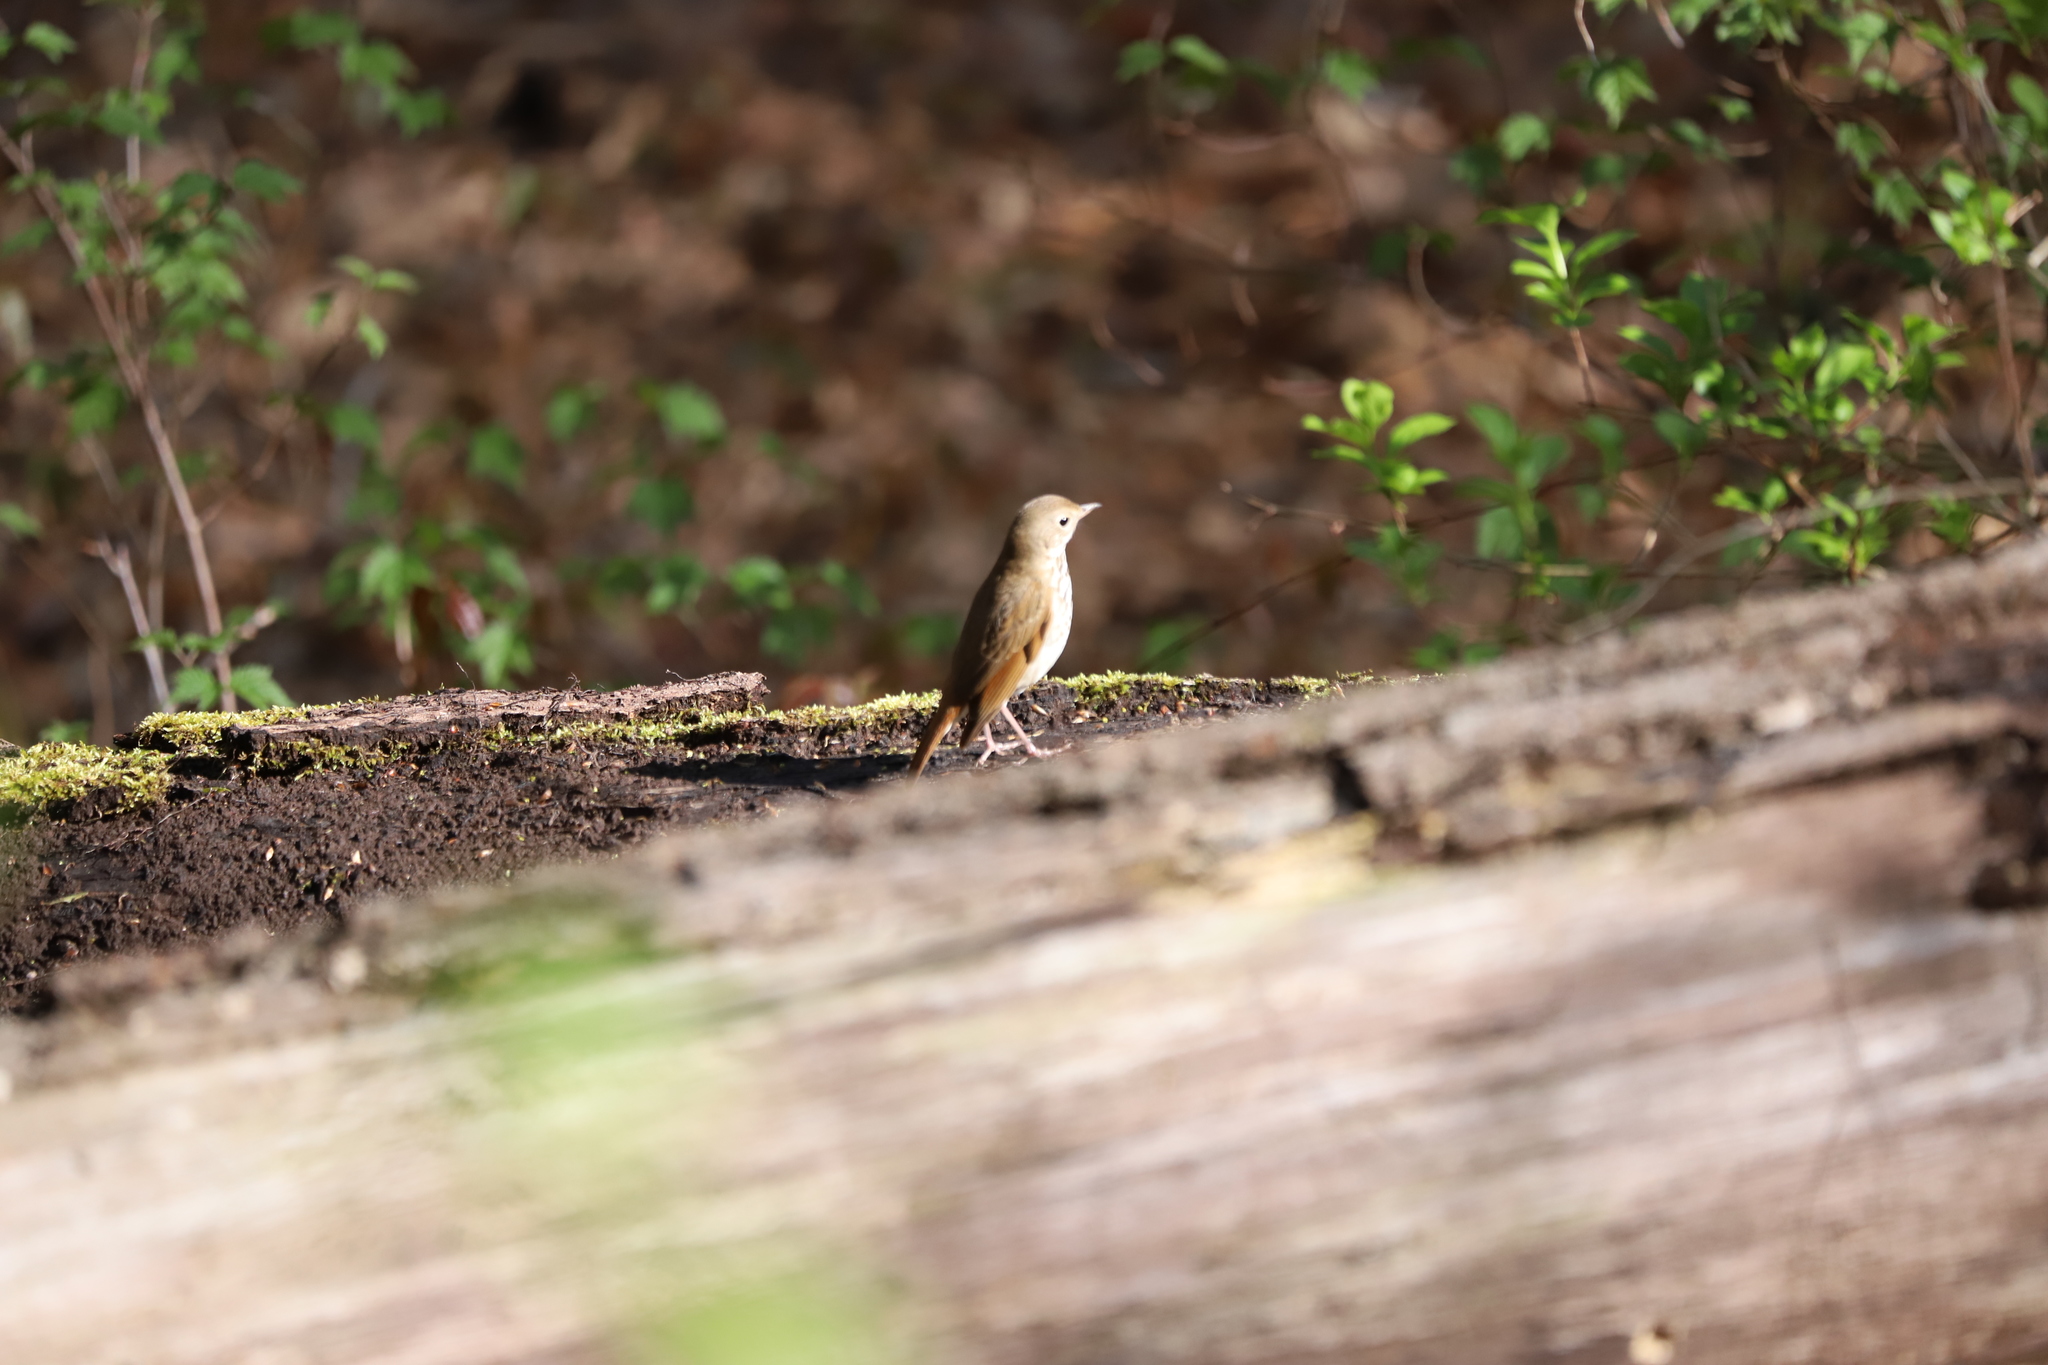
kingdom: Animalia
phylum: Chordata
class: Aves
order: Passeriformes
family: Turdidae
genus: Catharus
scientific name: Catharus guttatus
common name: Hermit thrush
